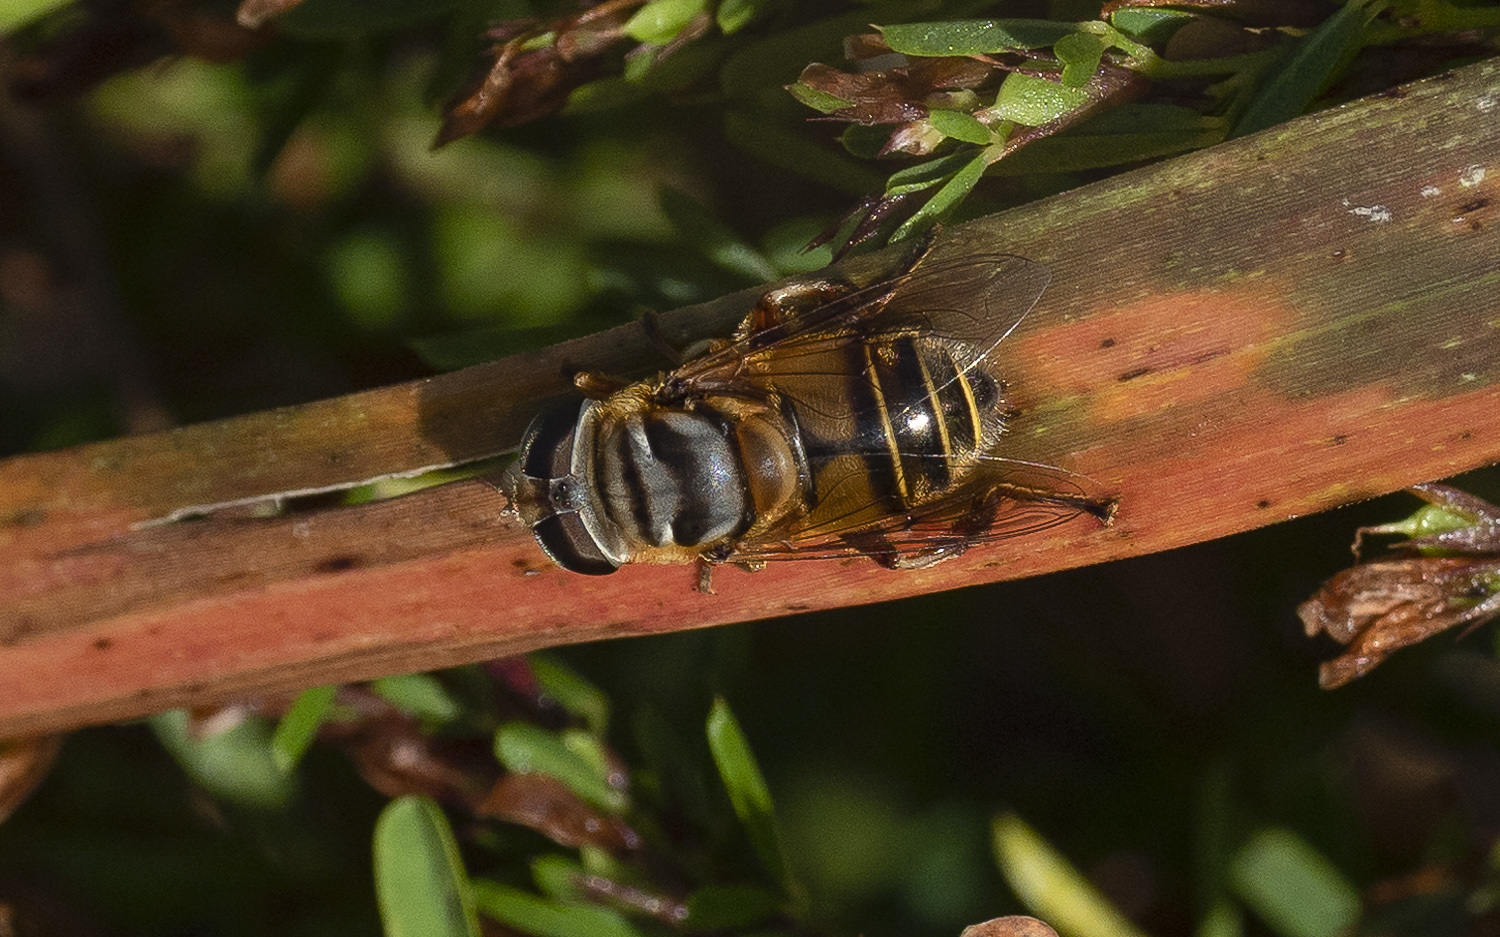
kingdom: Animalia
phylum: Arthropoda
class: Insecta
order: Diptera
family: Syrphidae
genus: Palpada
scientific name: Palpada vinetorum
